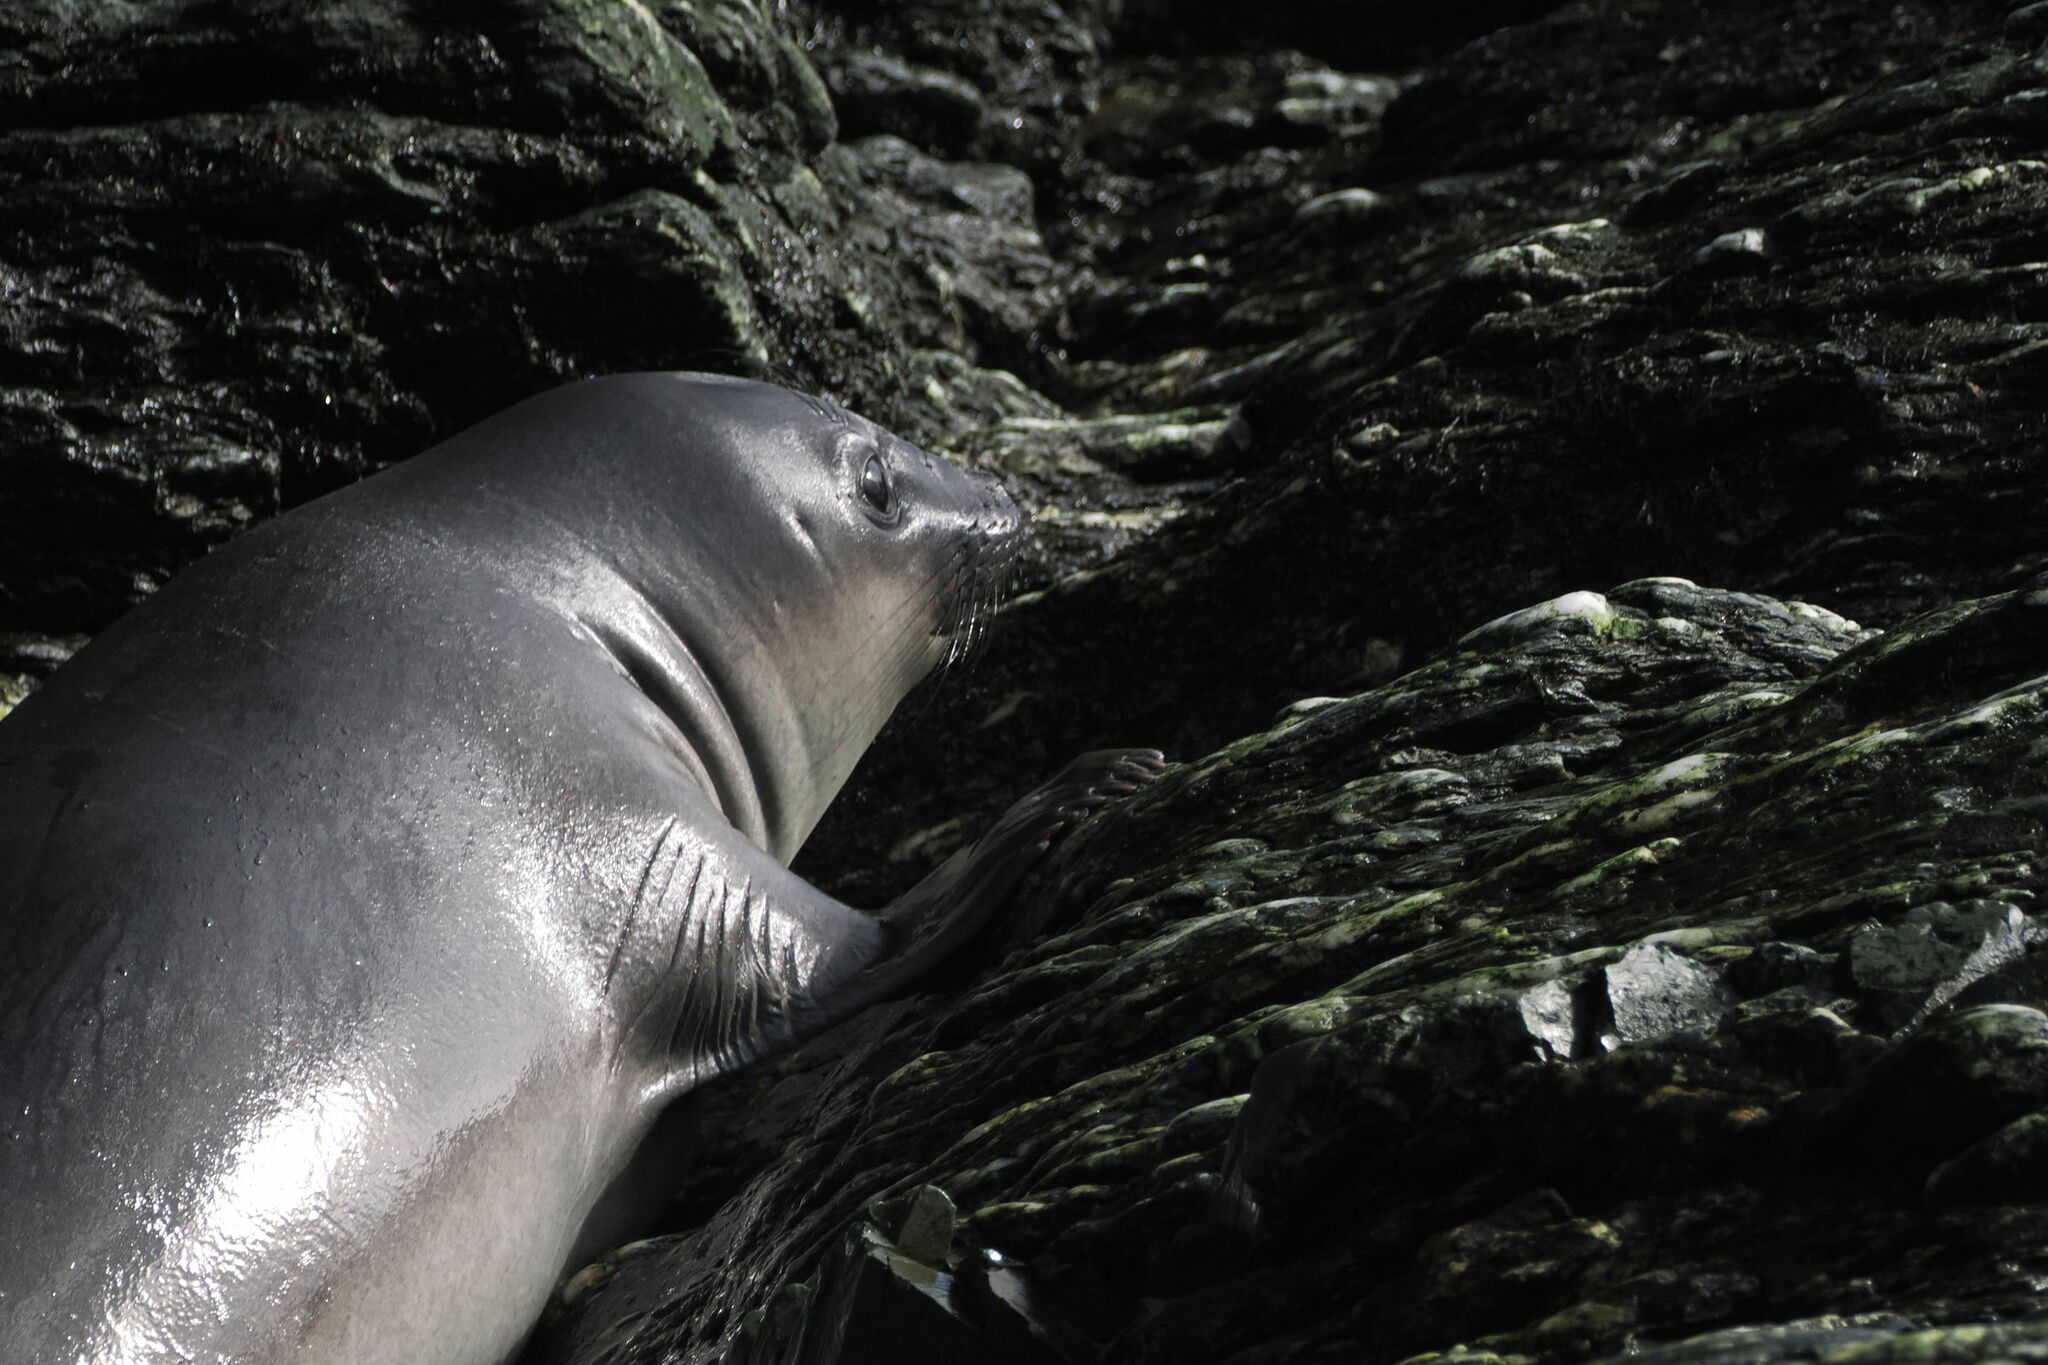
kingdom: Animalia
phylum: Chordata
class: Mammalia
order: Carnivora
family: Phocidae
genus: Mirounga
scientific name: Mirounga leonina
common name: Southern elephant seal
